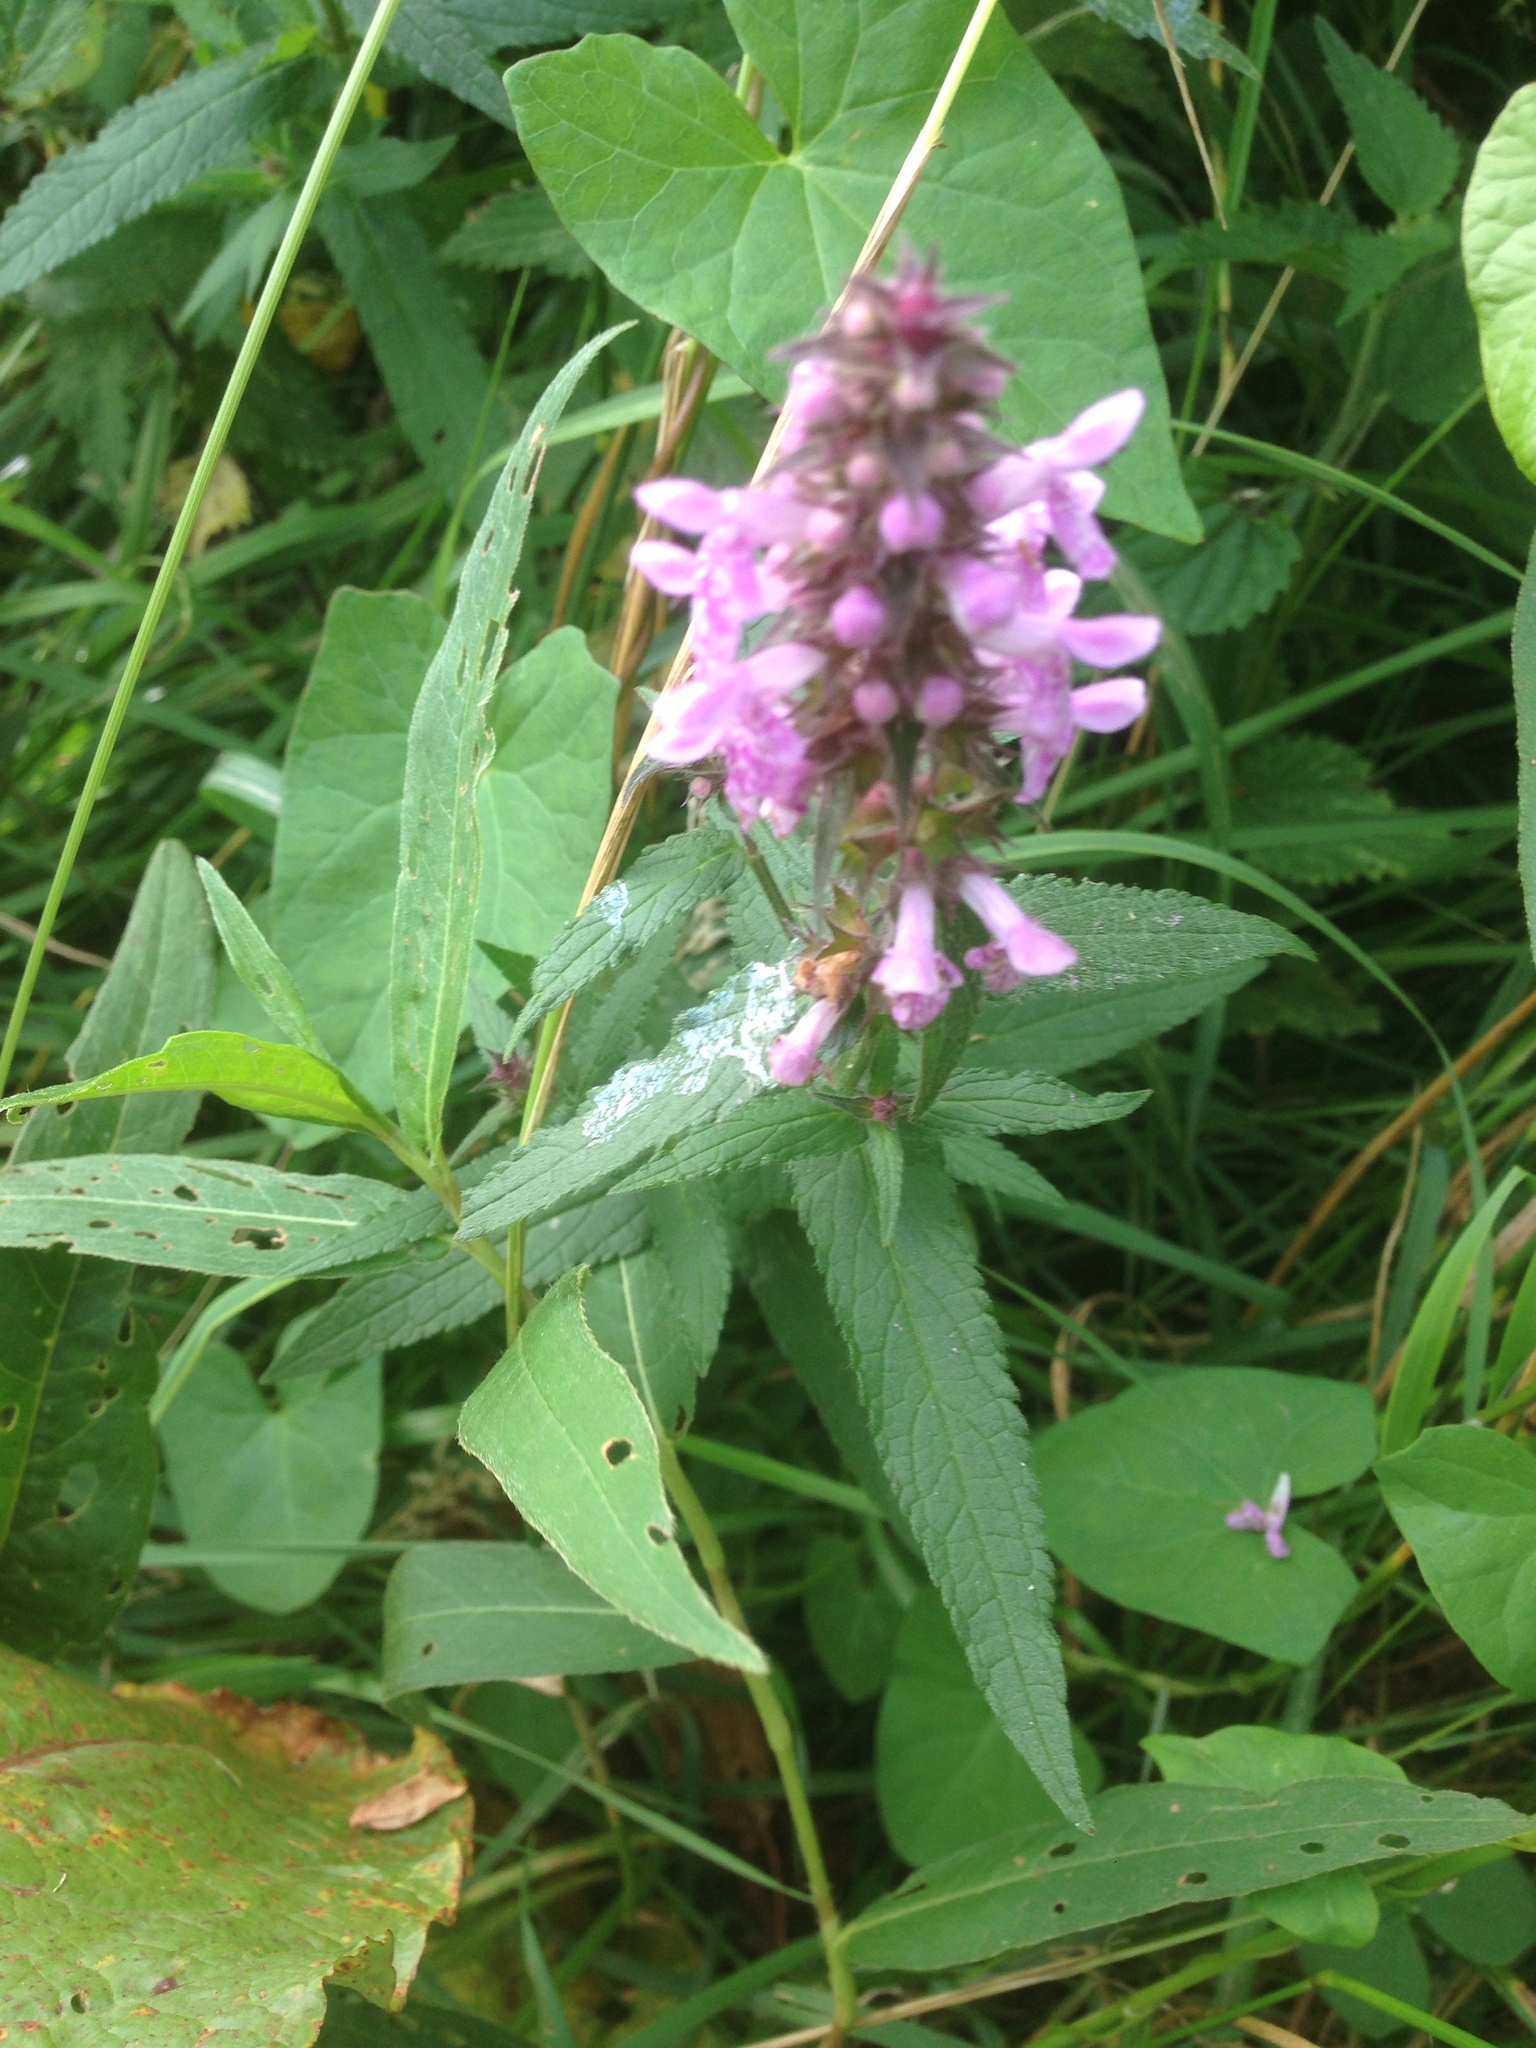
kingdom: Plantae
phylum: Tracheophyta
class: Magnoliopsida
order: Lamiales
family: Lamiaceae
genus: Stachys
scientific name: Stachys palustris
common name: Marsh woundwort
